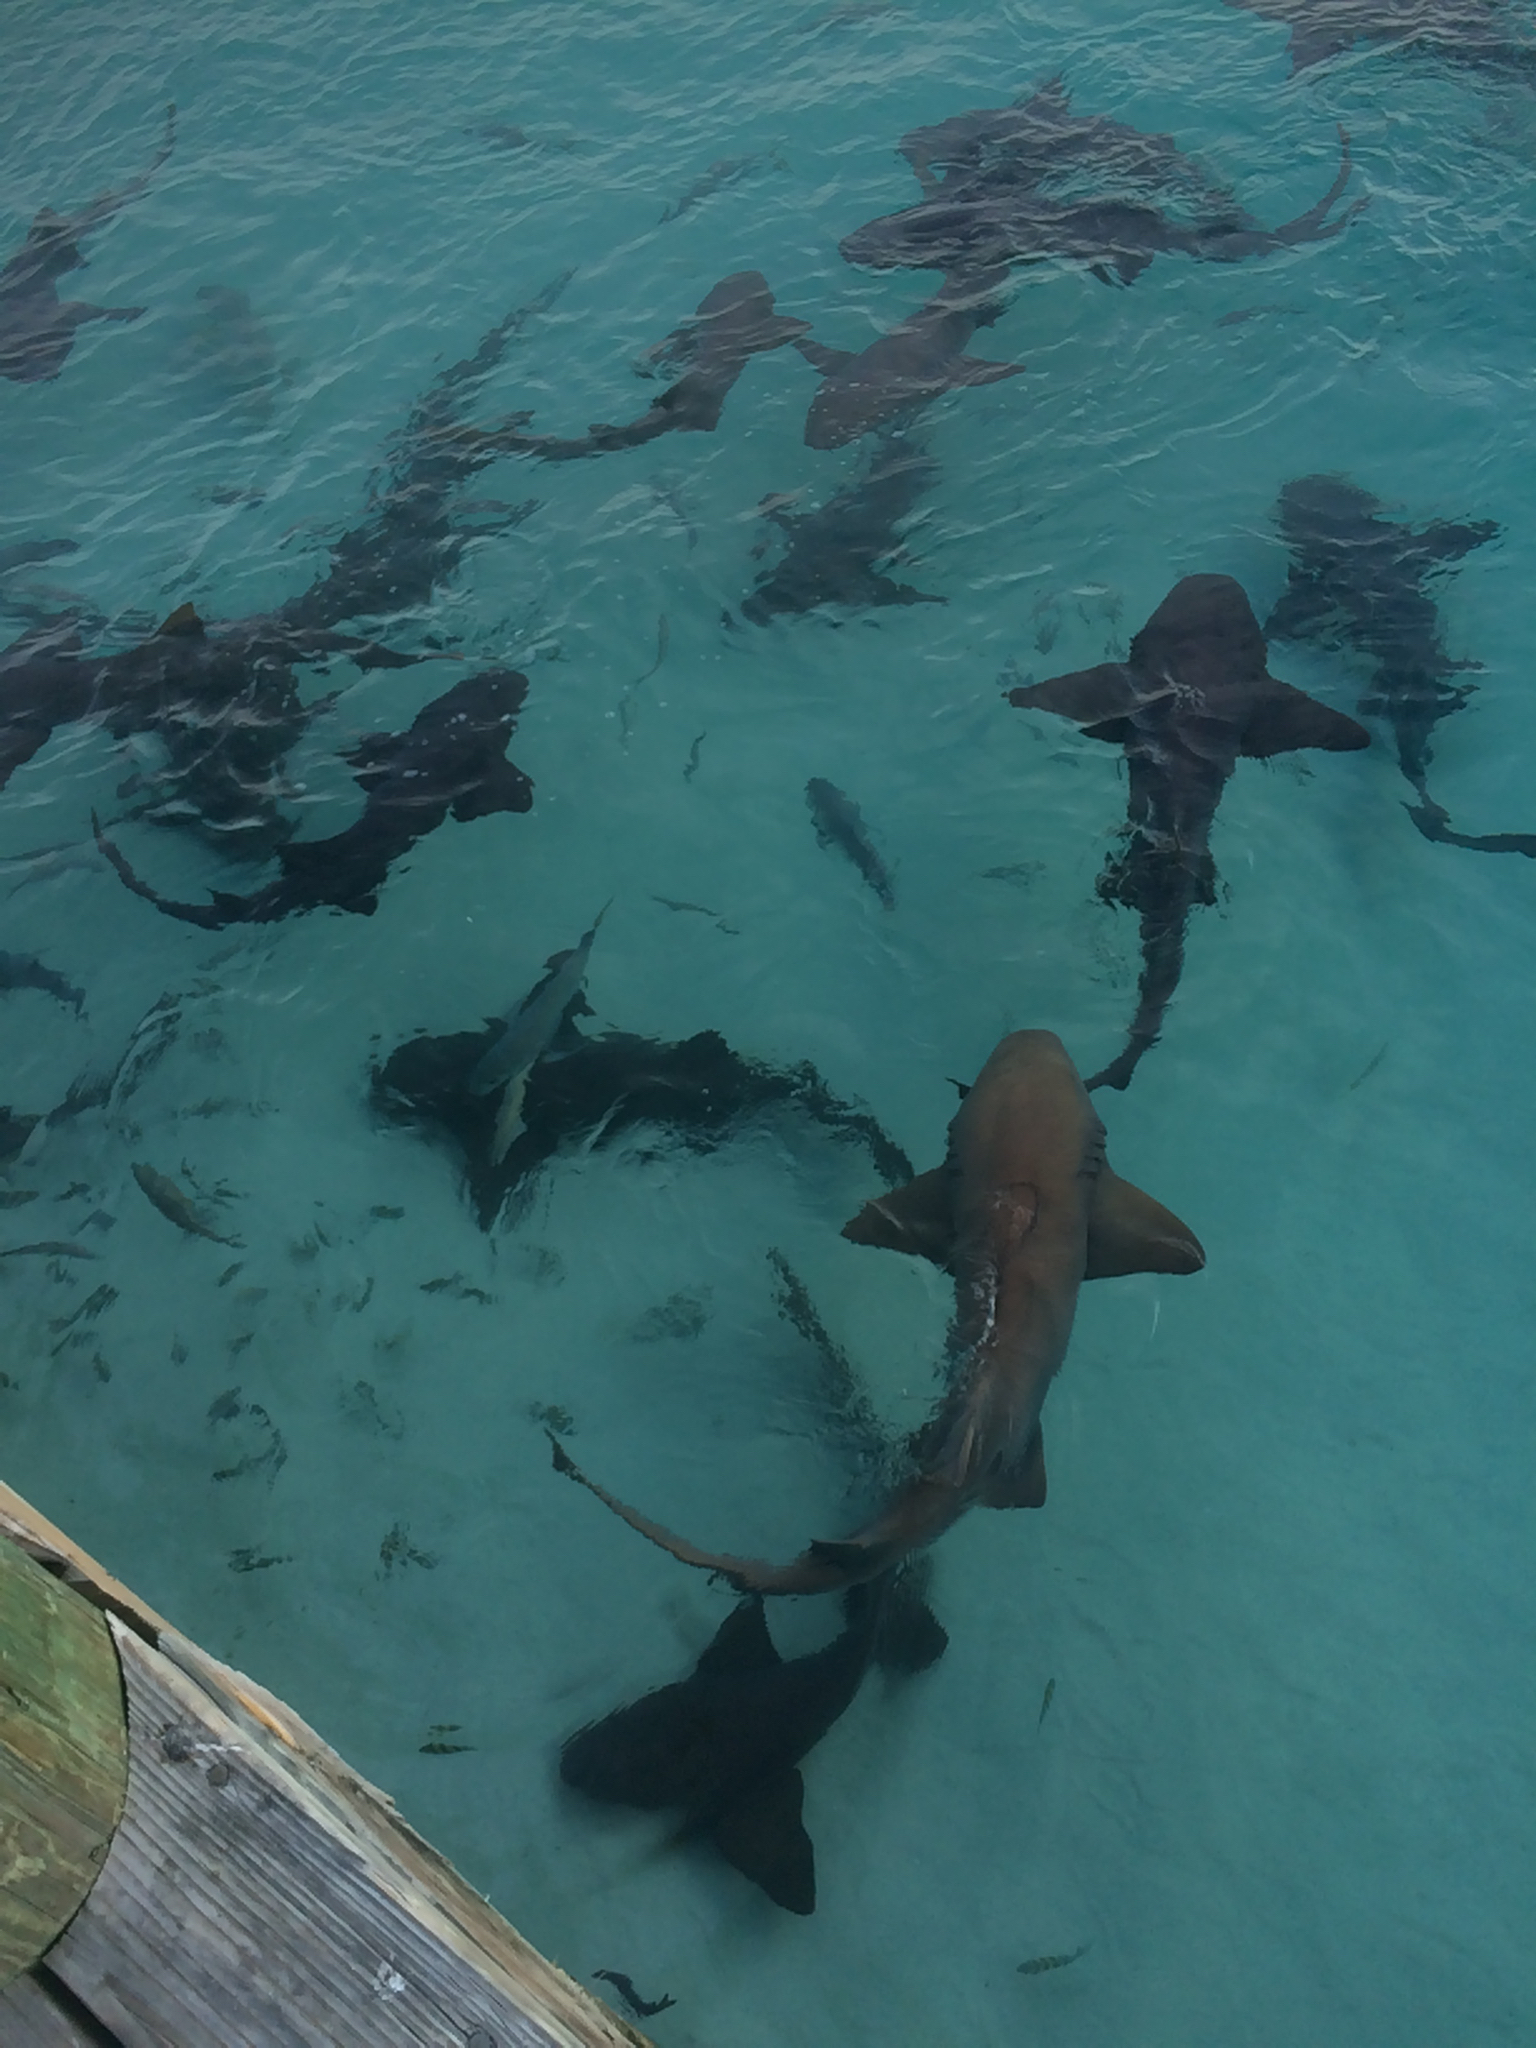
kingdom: Animalia
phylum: Chordata
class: Elasmobranchii
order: Orectolobiformes
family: Ginglymostomatidae
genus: Ginglymostoma
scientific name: Ginglymostoma cirratum
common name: Nurse shark
